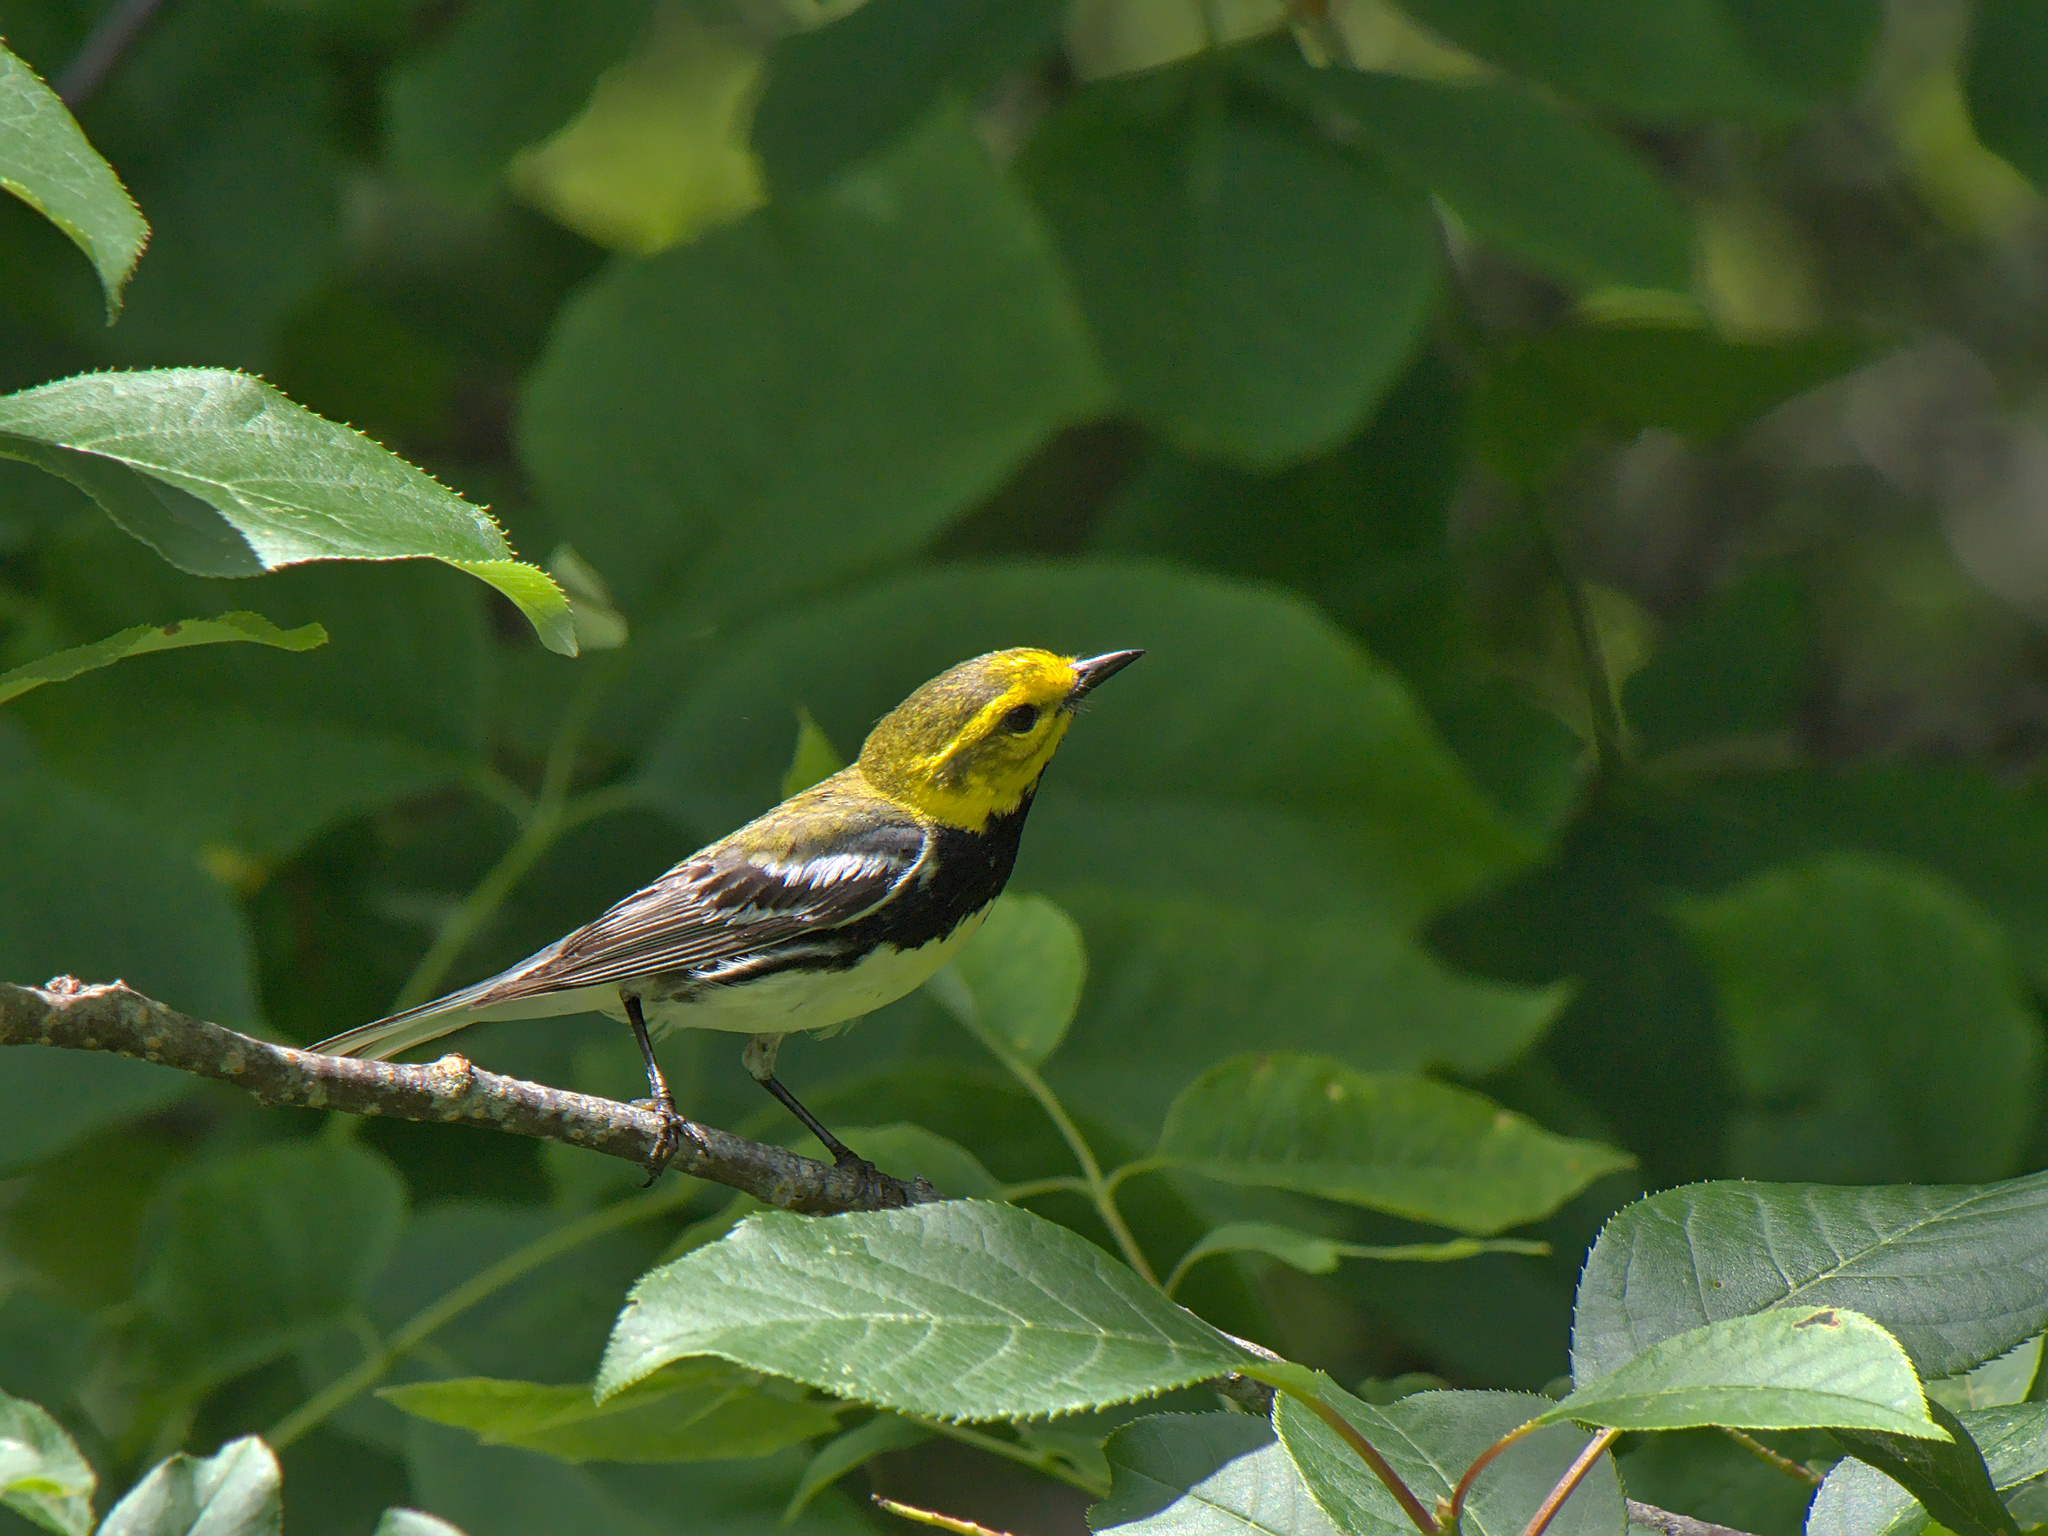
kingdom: Animalia
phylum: Chordata
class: Aves
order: Passeriformes
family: Parulidae
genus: Setophaga
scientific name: Setophaga virens
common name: Black-throated green warbler
